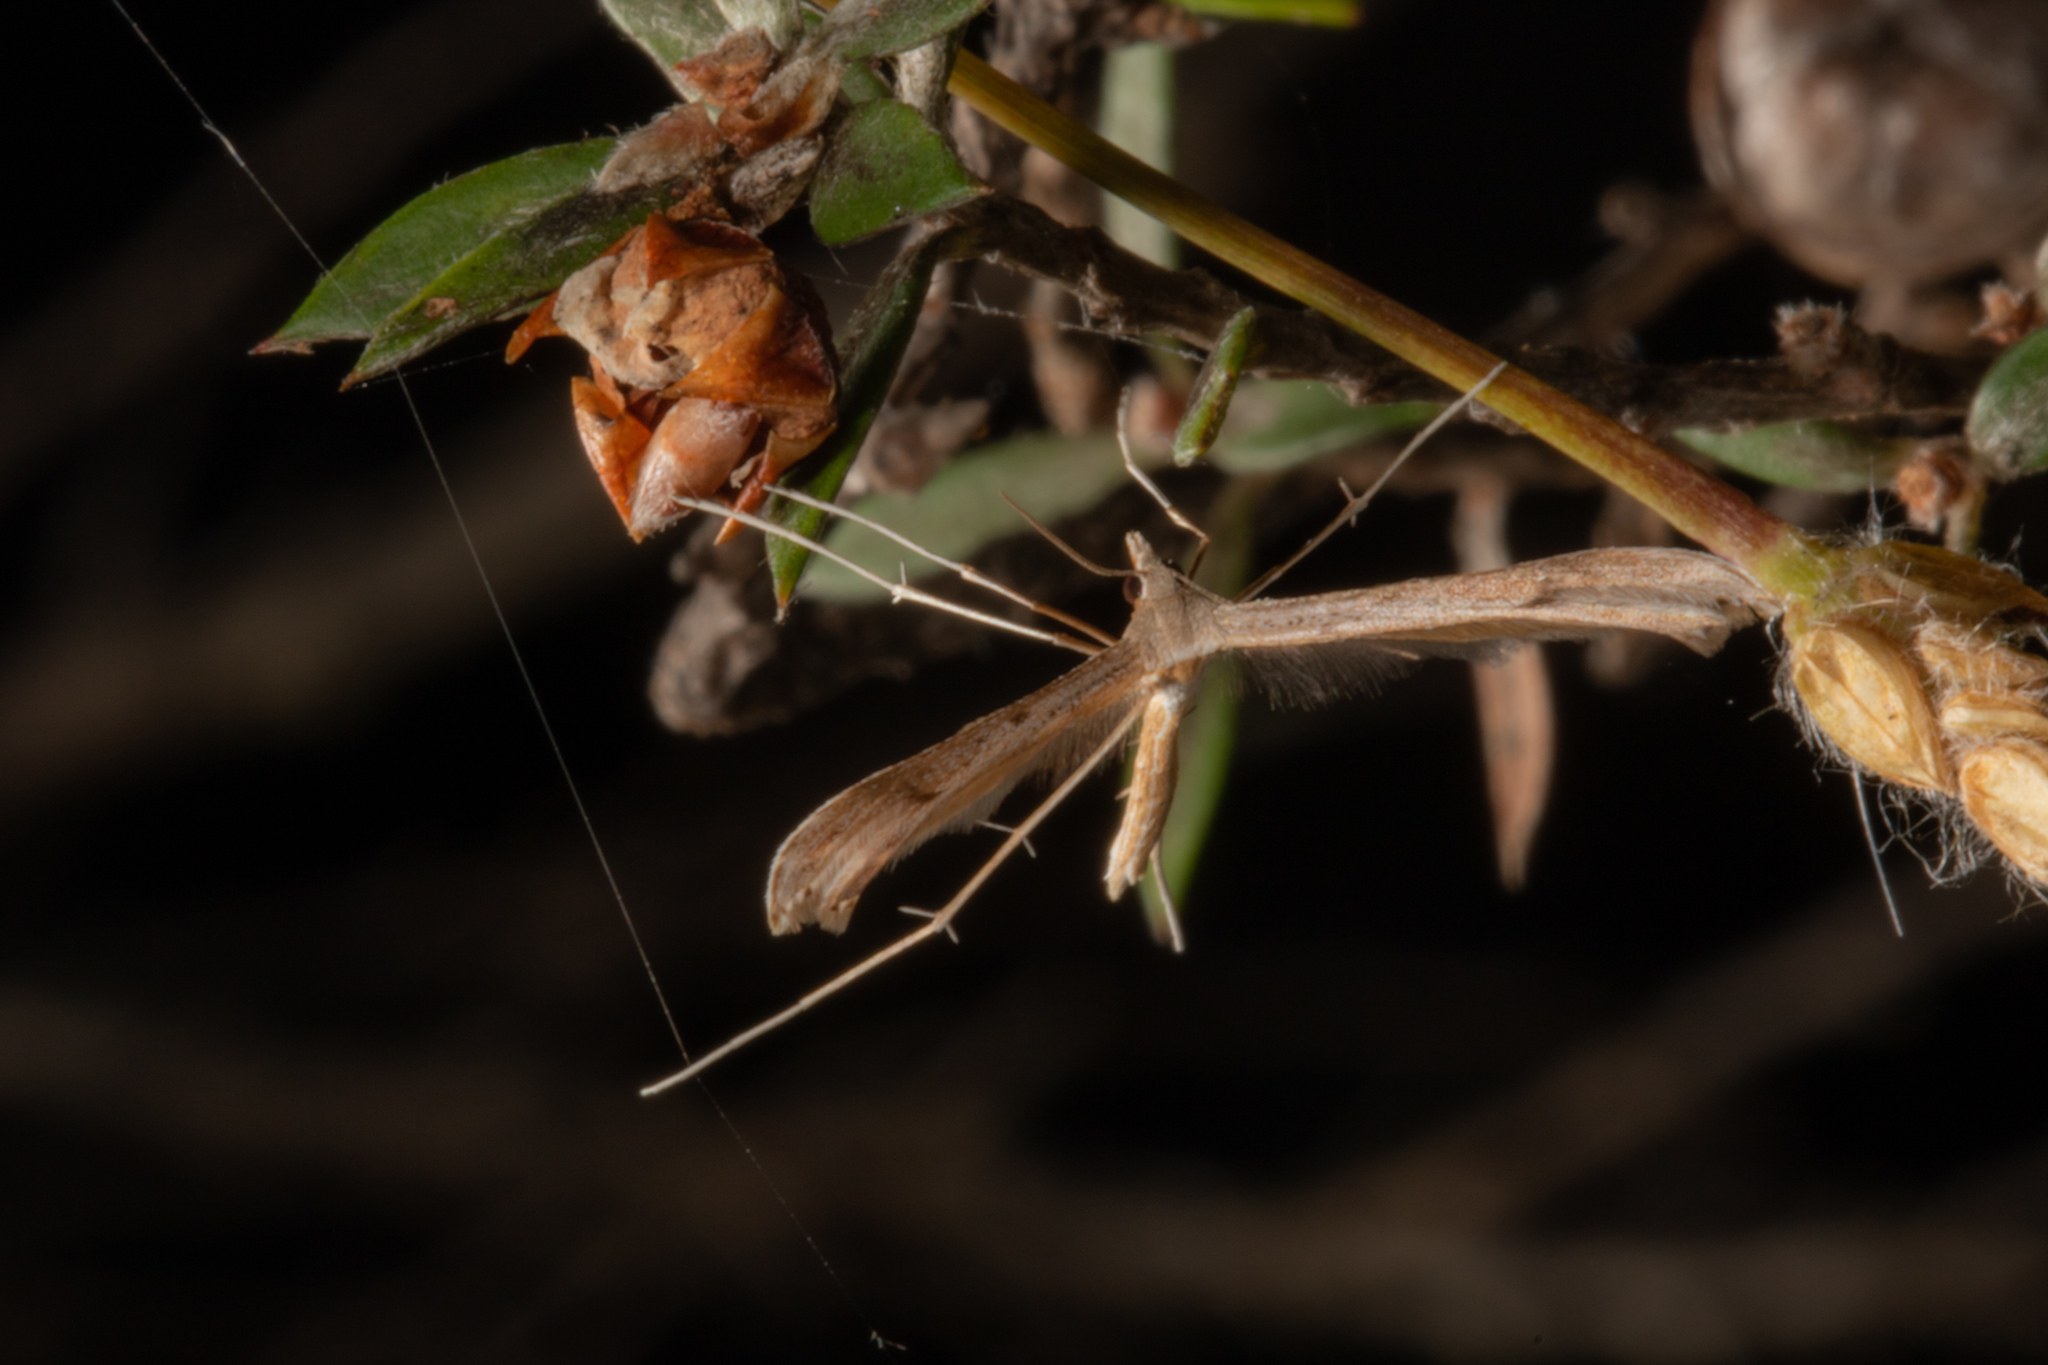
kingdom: Animalia
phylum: Arthropoda
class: Insecta
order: Lepidoptera
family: Pterophoridae
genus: Stenoptilia
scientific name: Stenoptilia zophodactylus
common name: Dowdy plume
